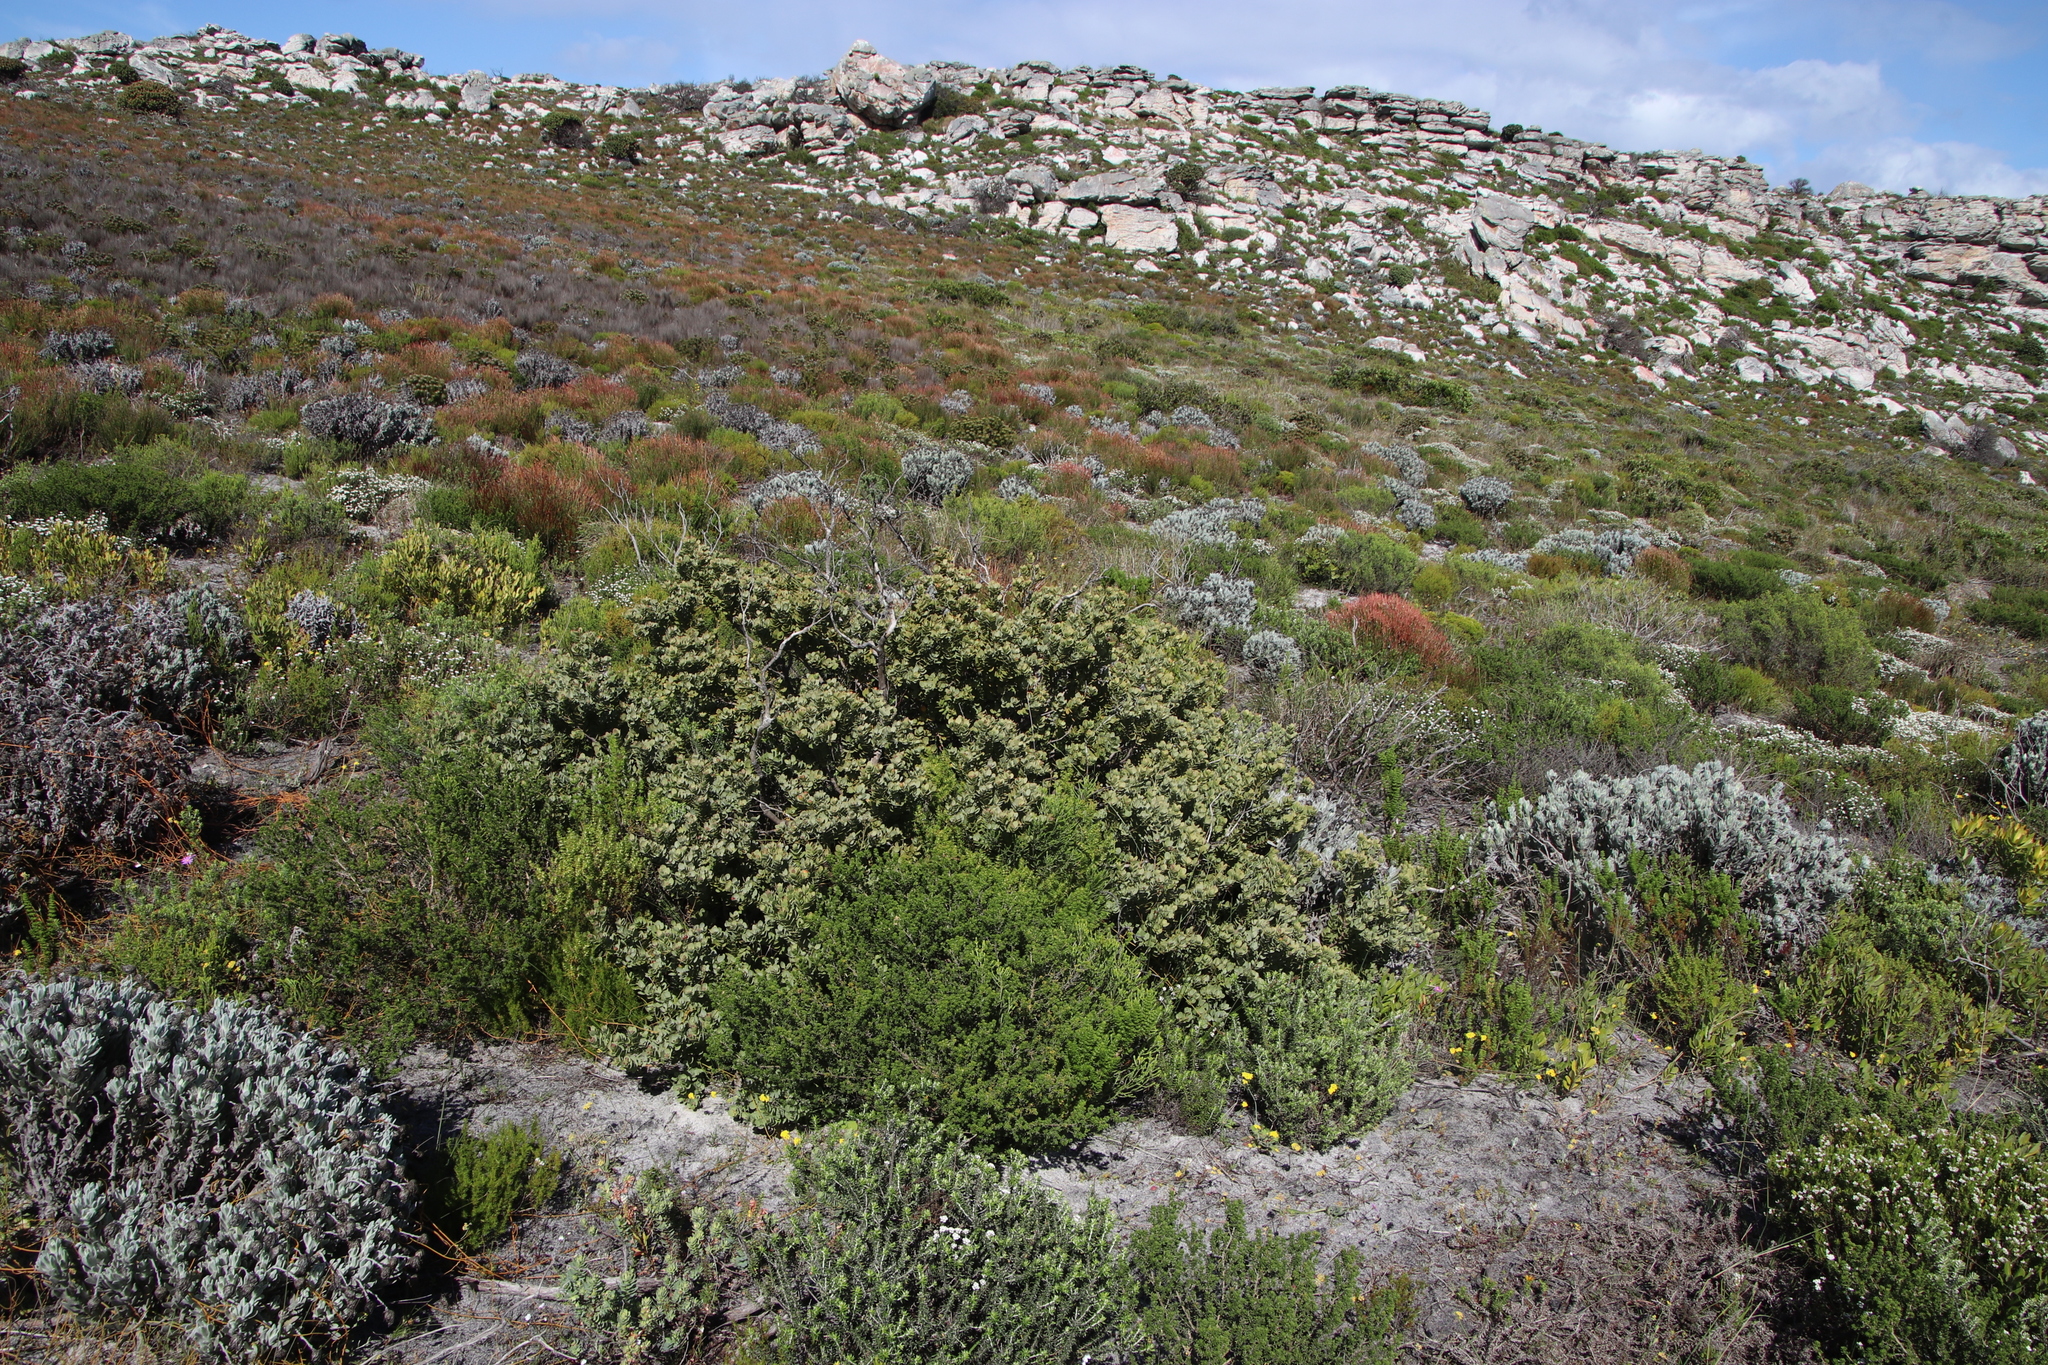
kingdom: Plantae
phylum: Tracheophyta
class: Magnoliopsida
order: Santalales
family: Santalaceae
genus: Osyris
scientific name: Osyris compressa
